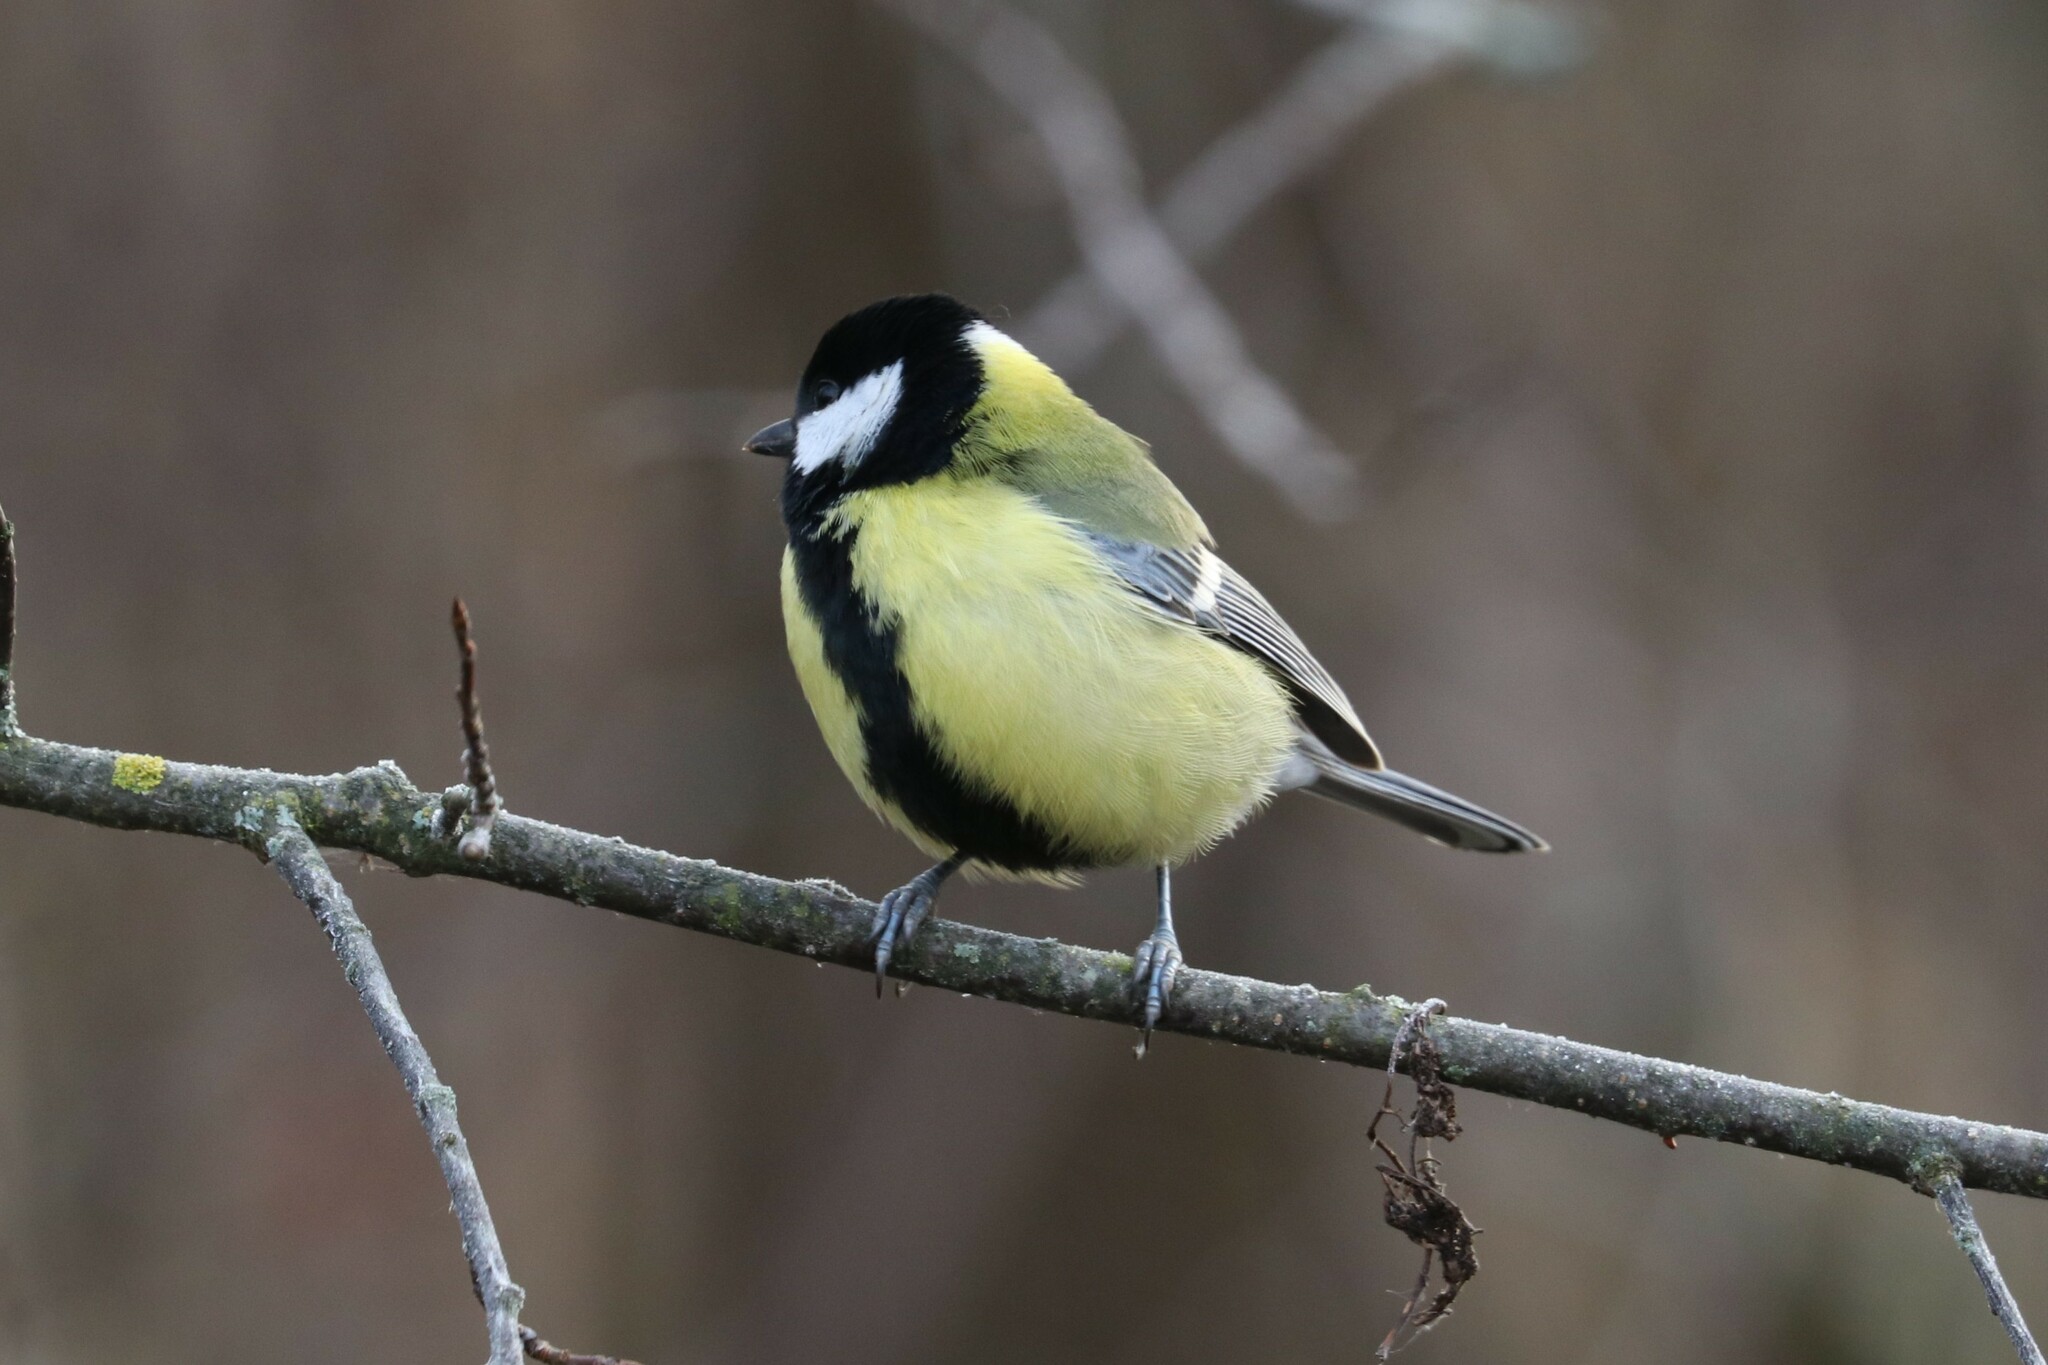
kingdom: Animalia
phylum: Chordata
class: Aves
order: Passeriformes
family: Paridae
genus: Parus
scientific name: Parus major
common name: Great tit
